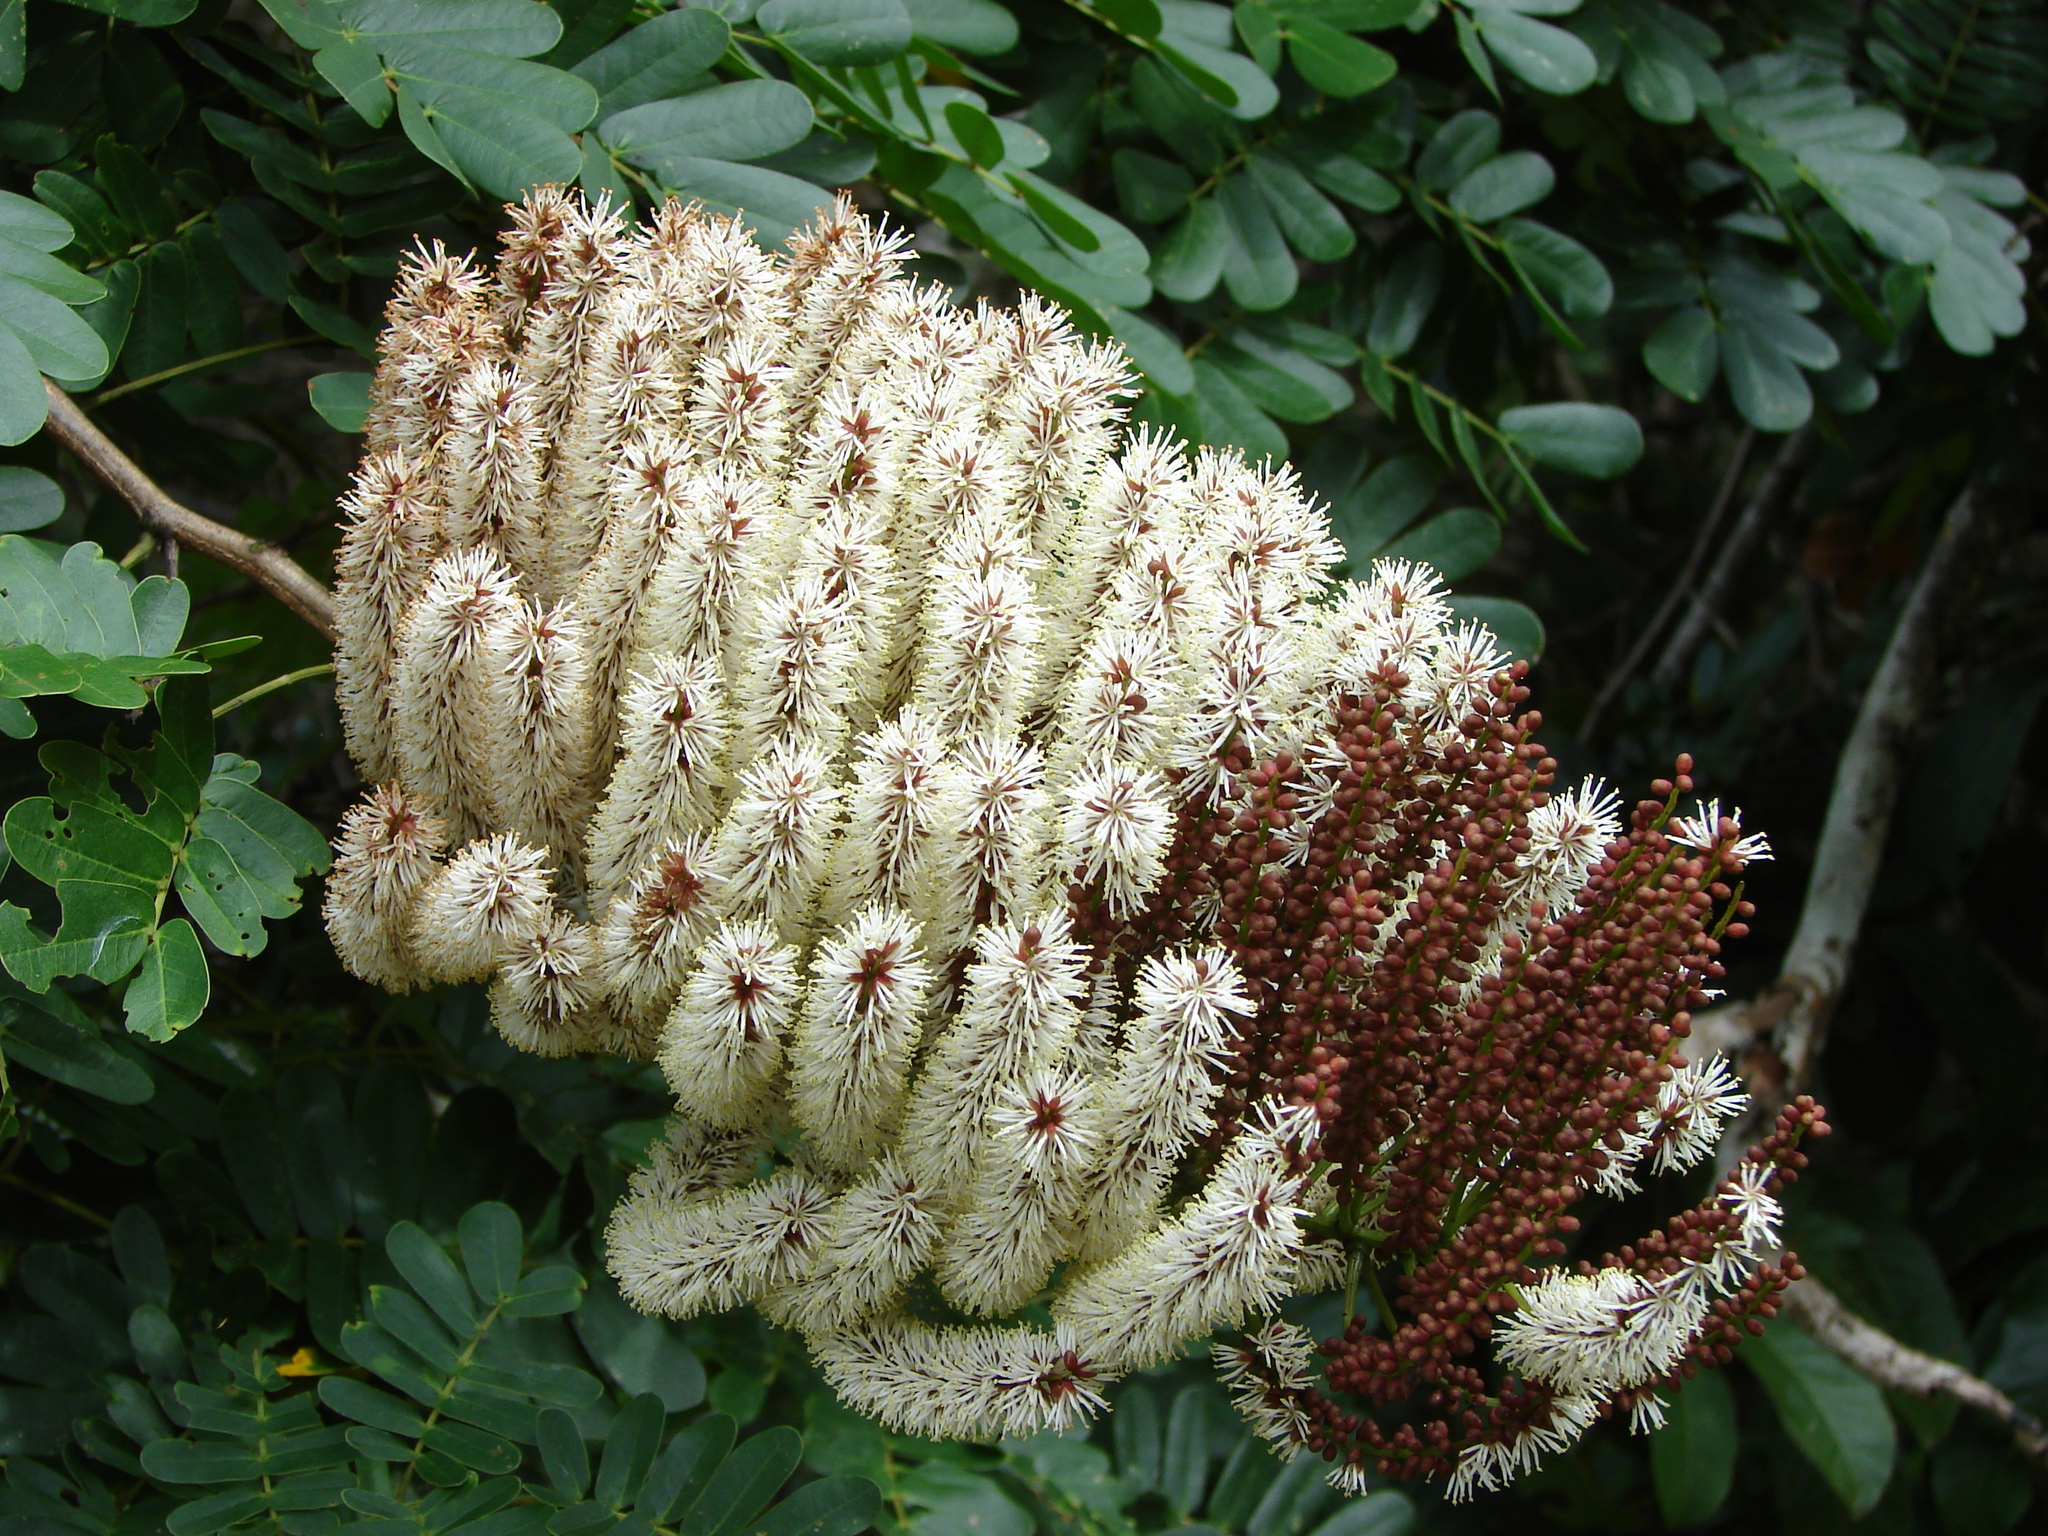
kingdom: Plantae
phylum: Tracheophyta
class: Magnoliopsida
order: Fabales
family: Fabaceae
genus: Entada
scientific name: Entada polystachya
